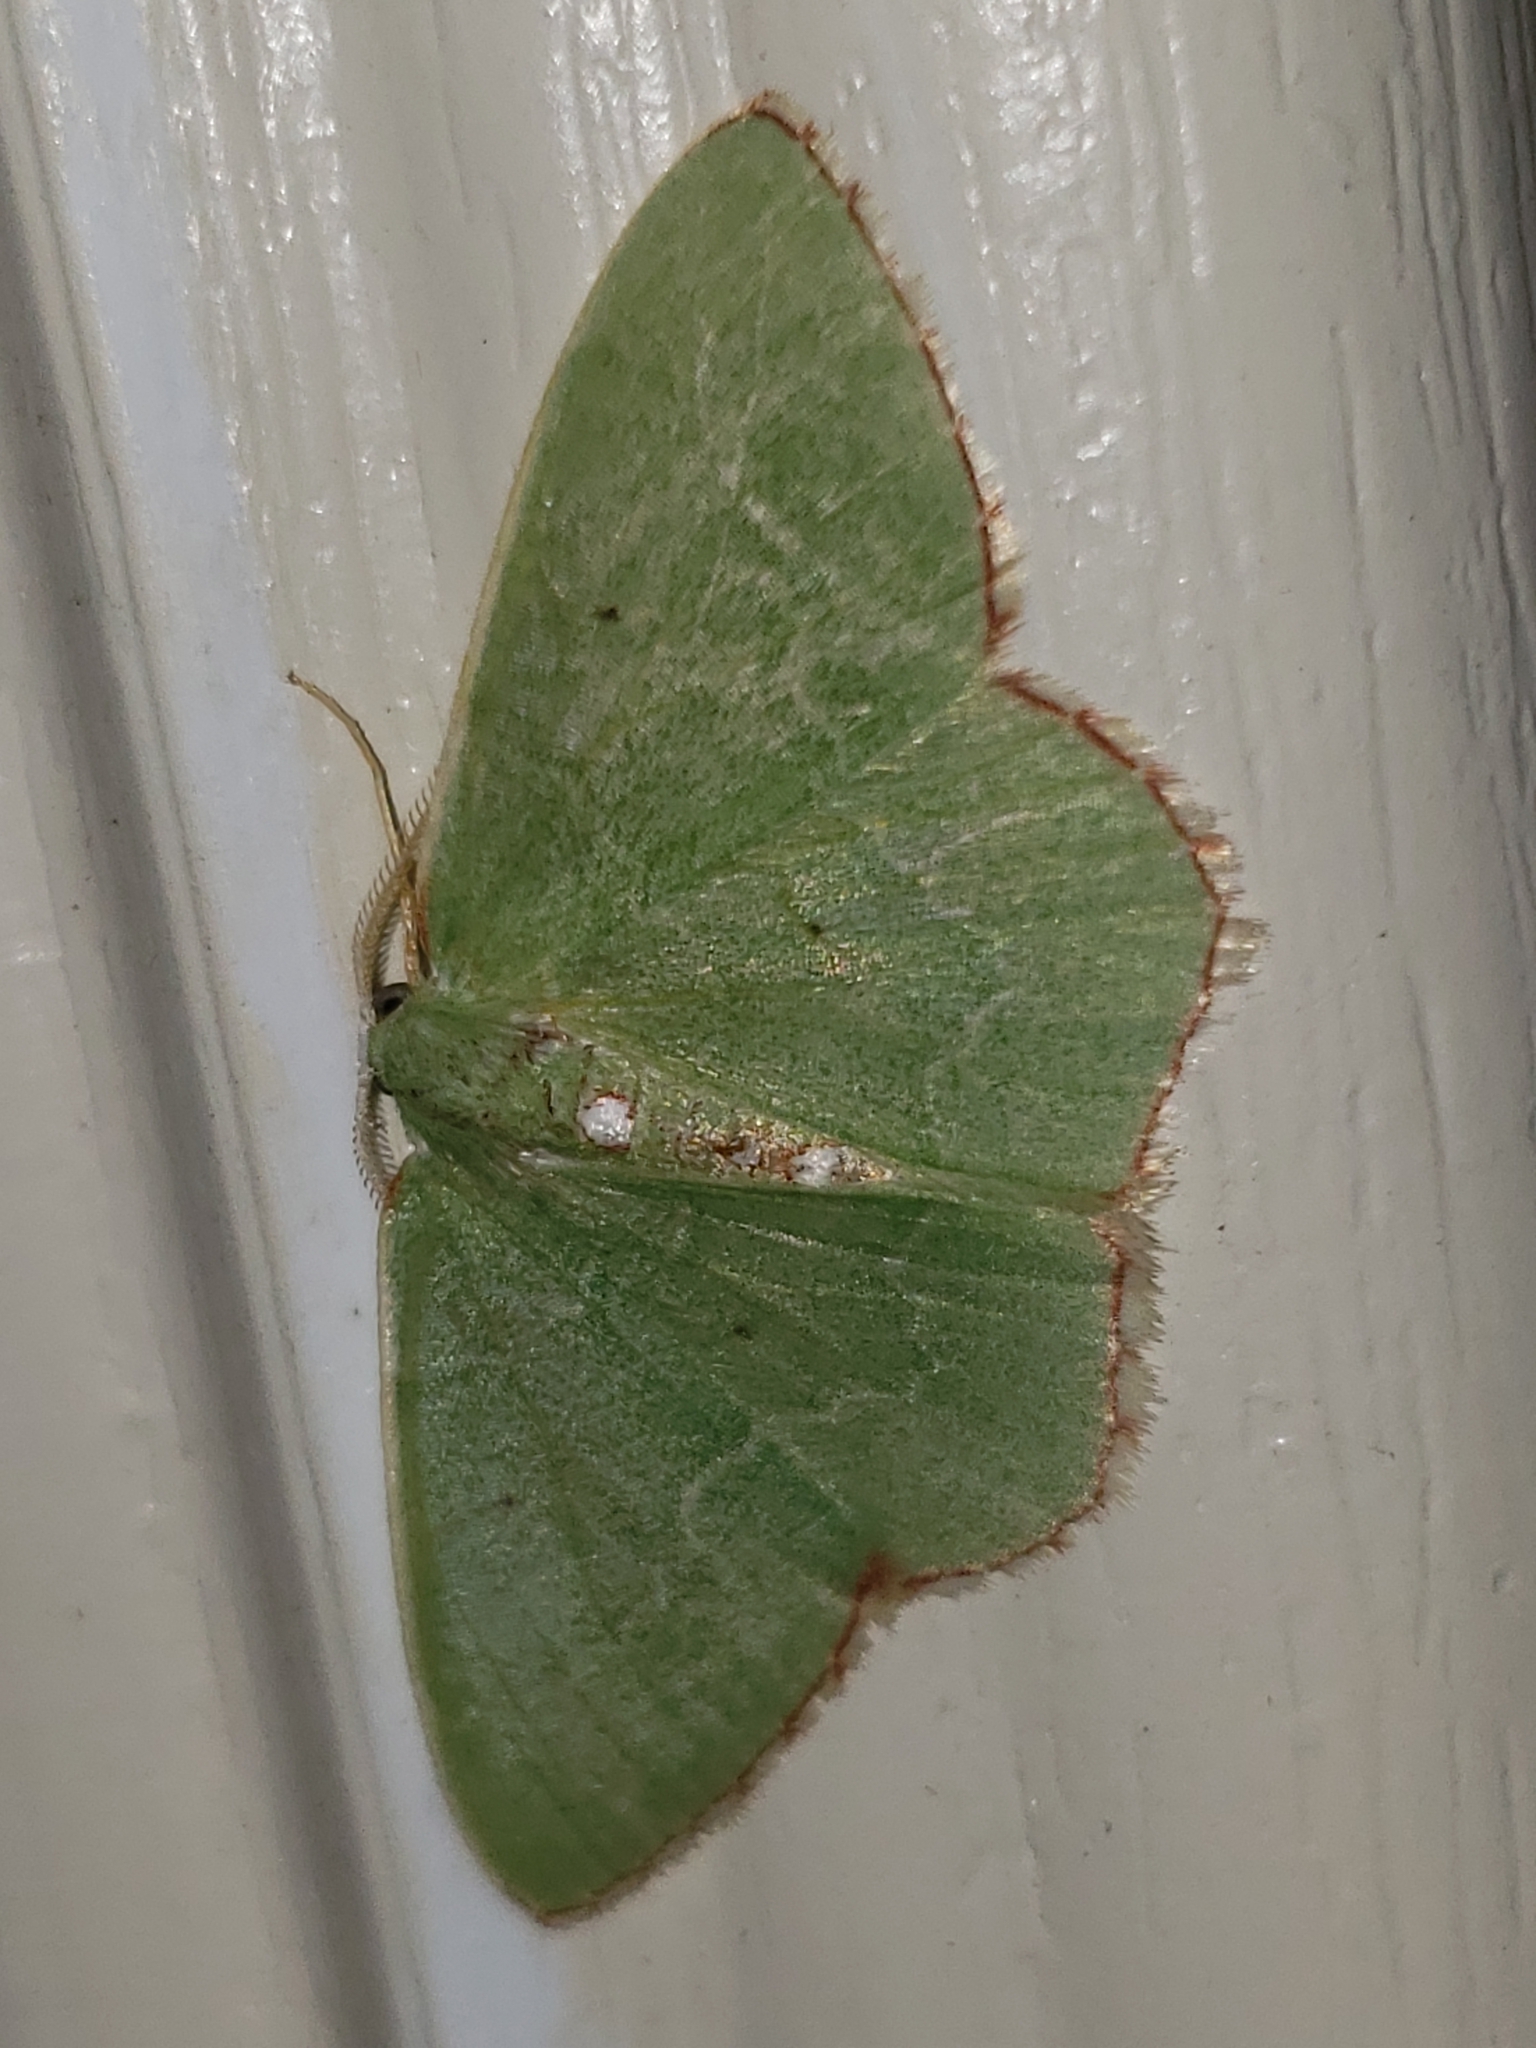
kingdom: Animalia
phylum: Arthropoda
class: Insecta
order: Lepidoptera
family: Geometridae
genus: Nemoria
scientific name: Nemoria lixaria
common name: Red-bordered emerald
